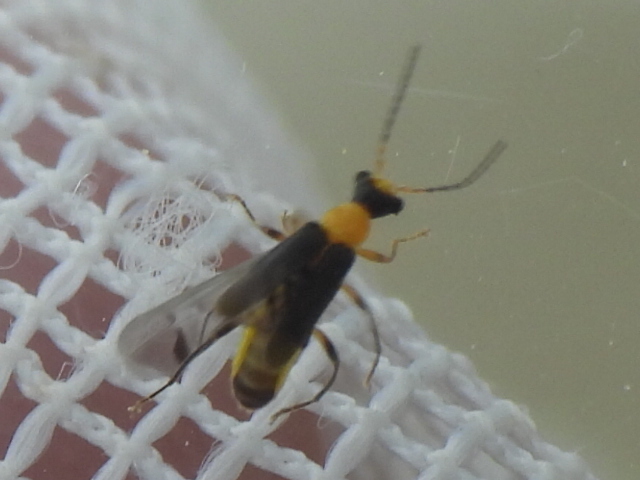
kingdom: Animalia
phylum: Arthropoda
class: Insecta
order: Coleoptera
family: Cantharidae
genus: Malthinus
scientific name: Malthinus occipitalis
